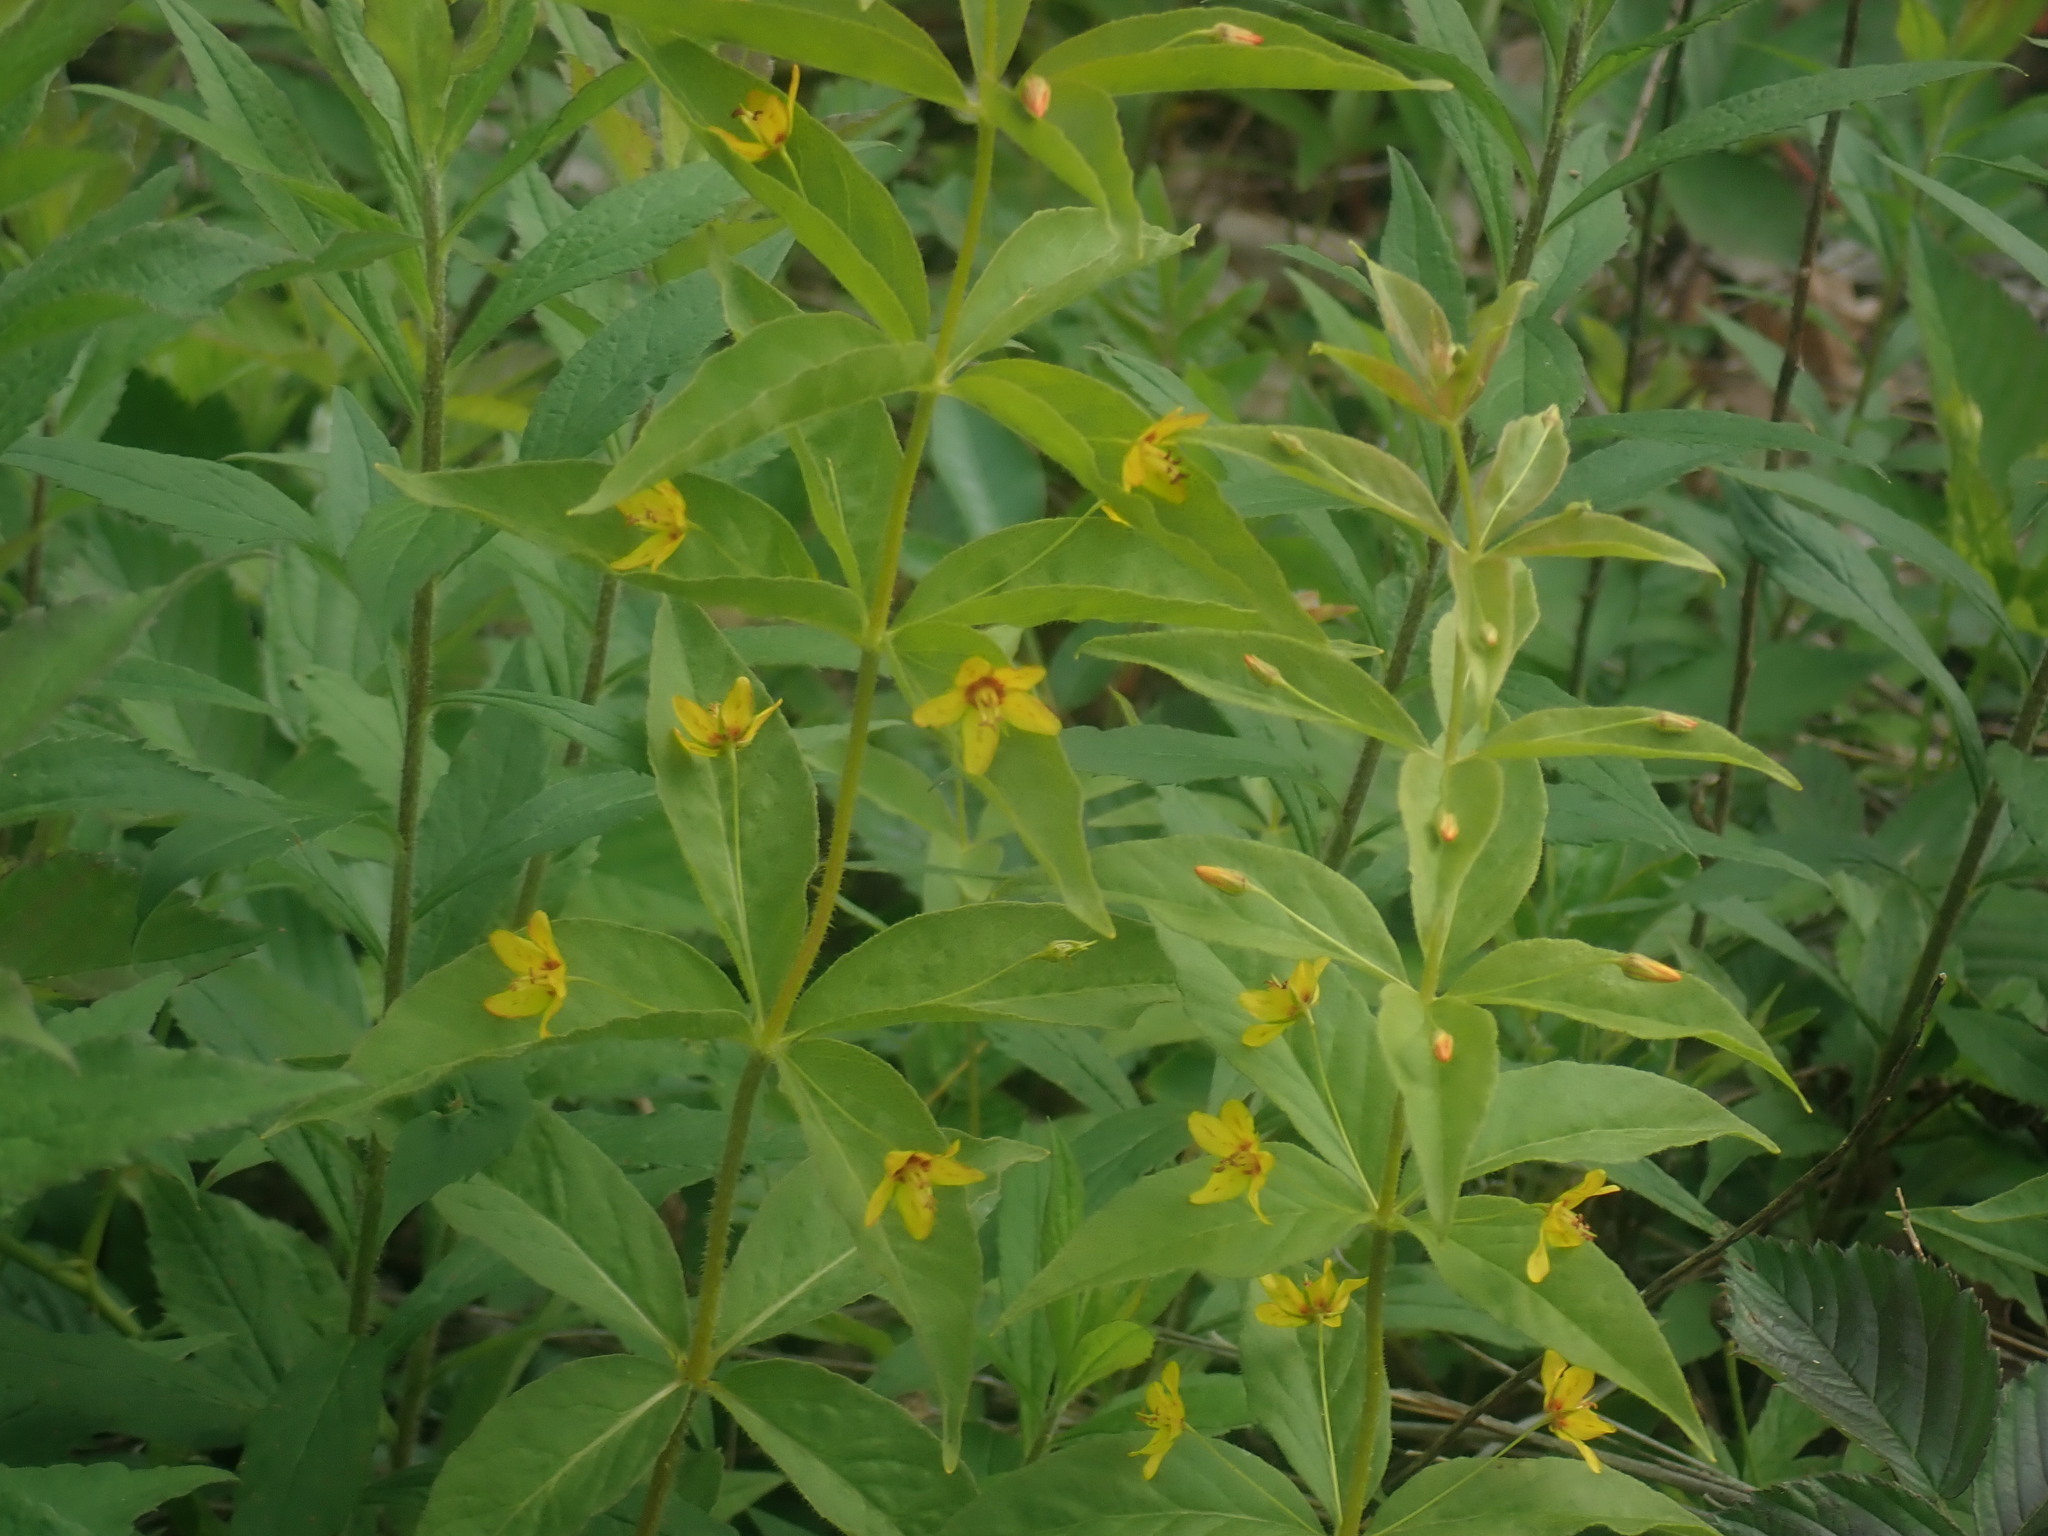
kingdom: Plantae
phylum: Tracheophyta
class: Magnoliopsida
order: Ericales
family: Primulaceae
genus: Lysimachia
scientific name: Lysimachia quadrifolia
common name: Whorled loosestrife
